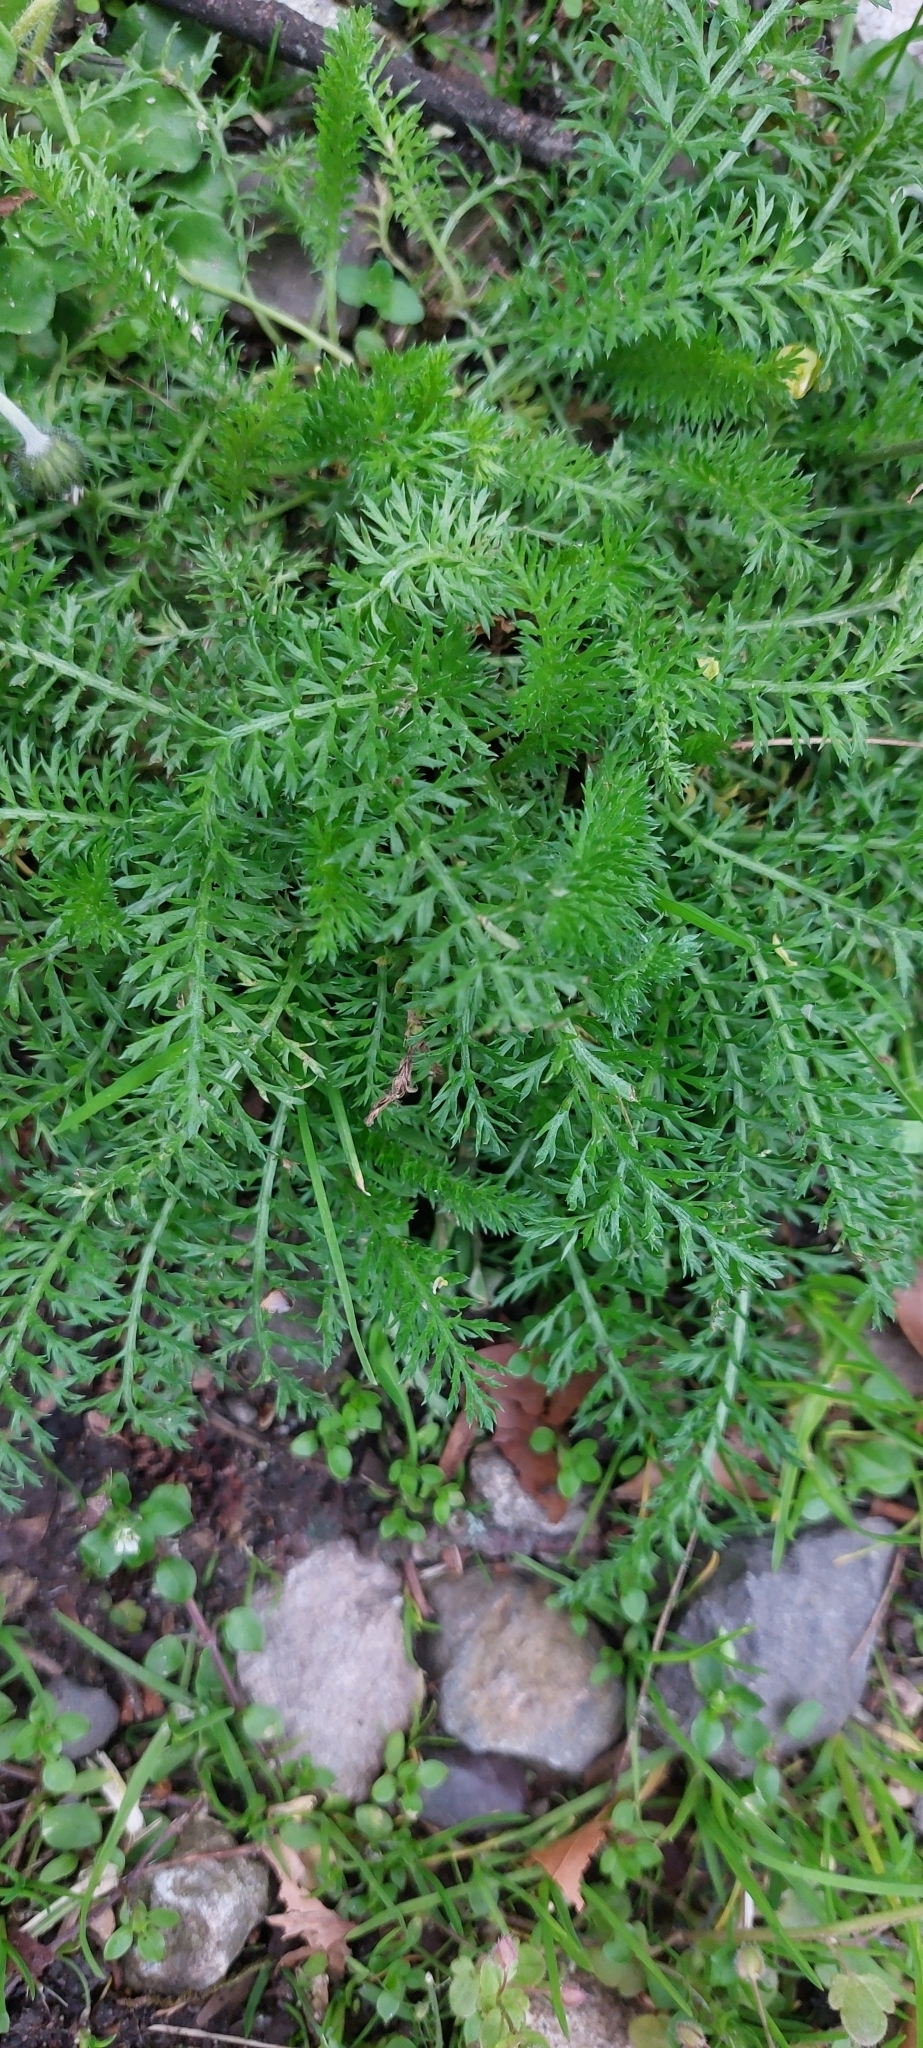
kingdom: Plantae
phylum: Tracheophyta
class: Magnoliopsida
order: Asterales
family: Asteraceae
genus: Achillea
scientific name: Achillea millefolium
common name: Yarrow
